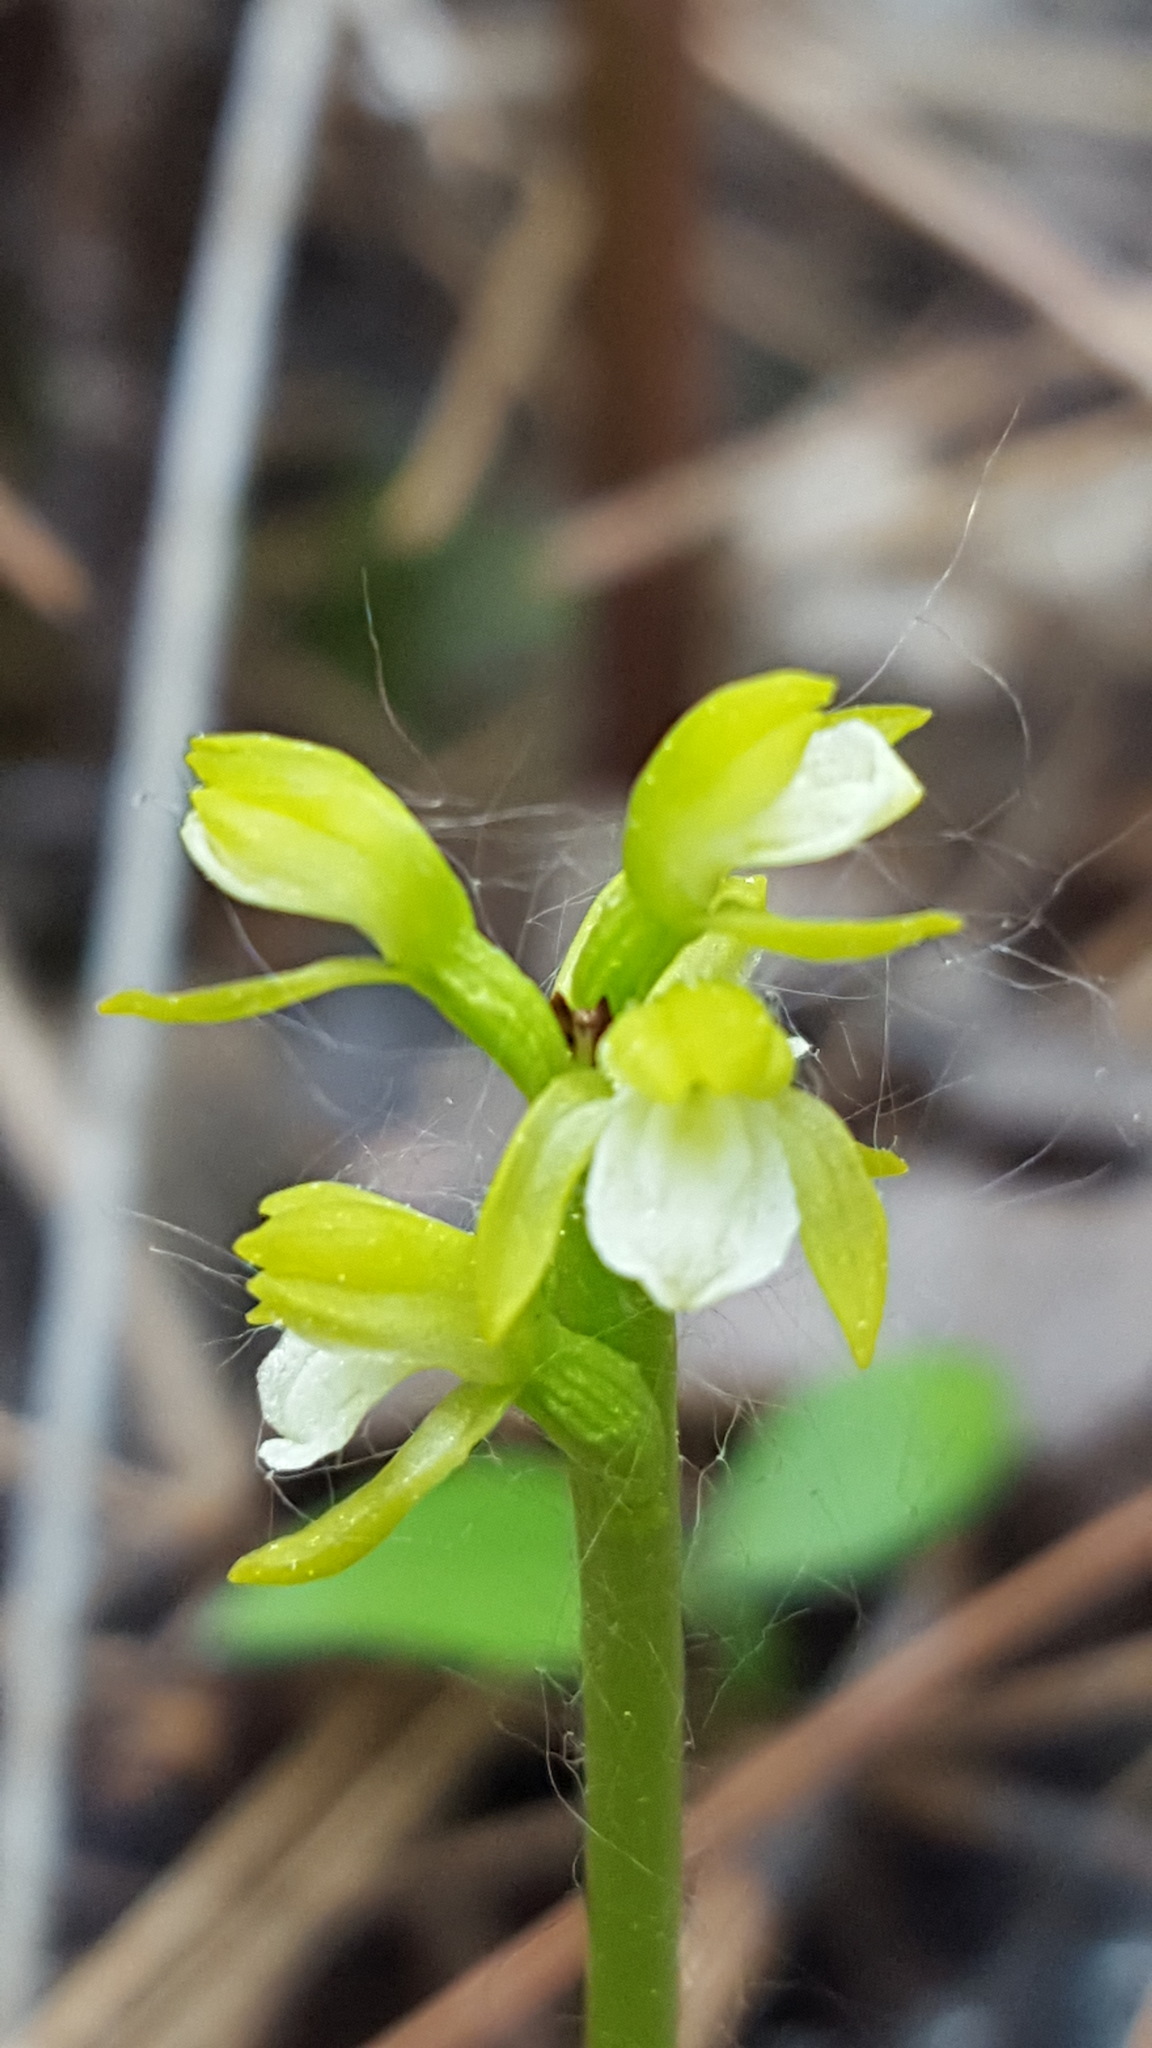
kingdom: Plantae
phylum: Tracheophyta
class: Liliopsida
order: Asparagales
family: Orchidaceae
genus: Corallorhiza
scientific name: Corallorhiza trifida
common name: Yellow coralroot
